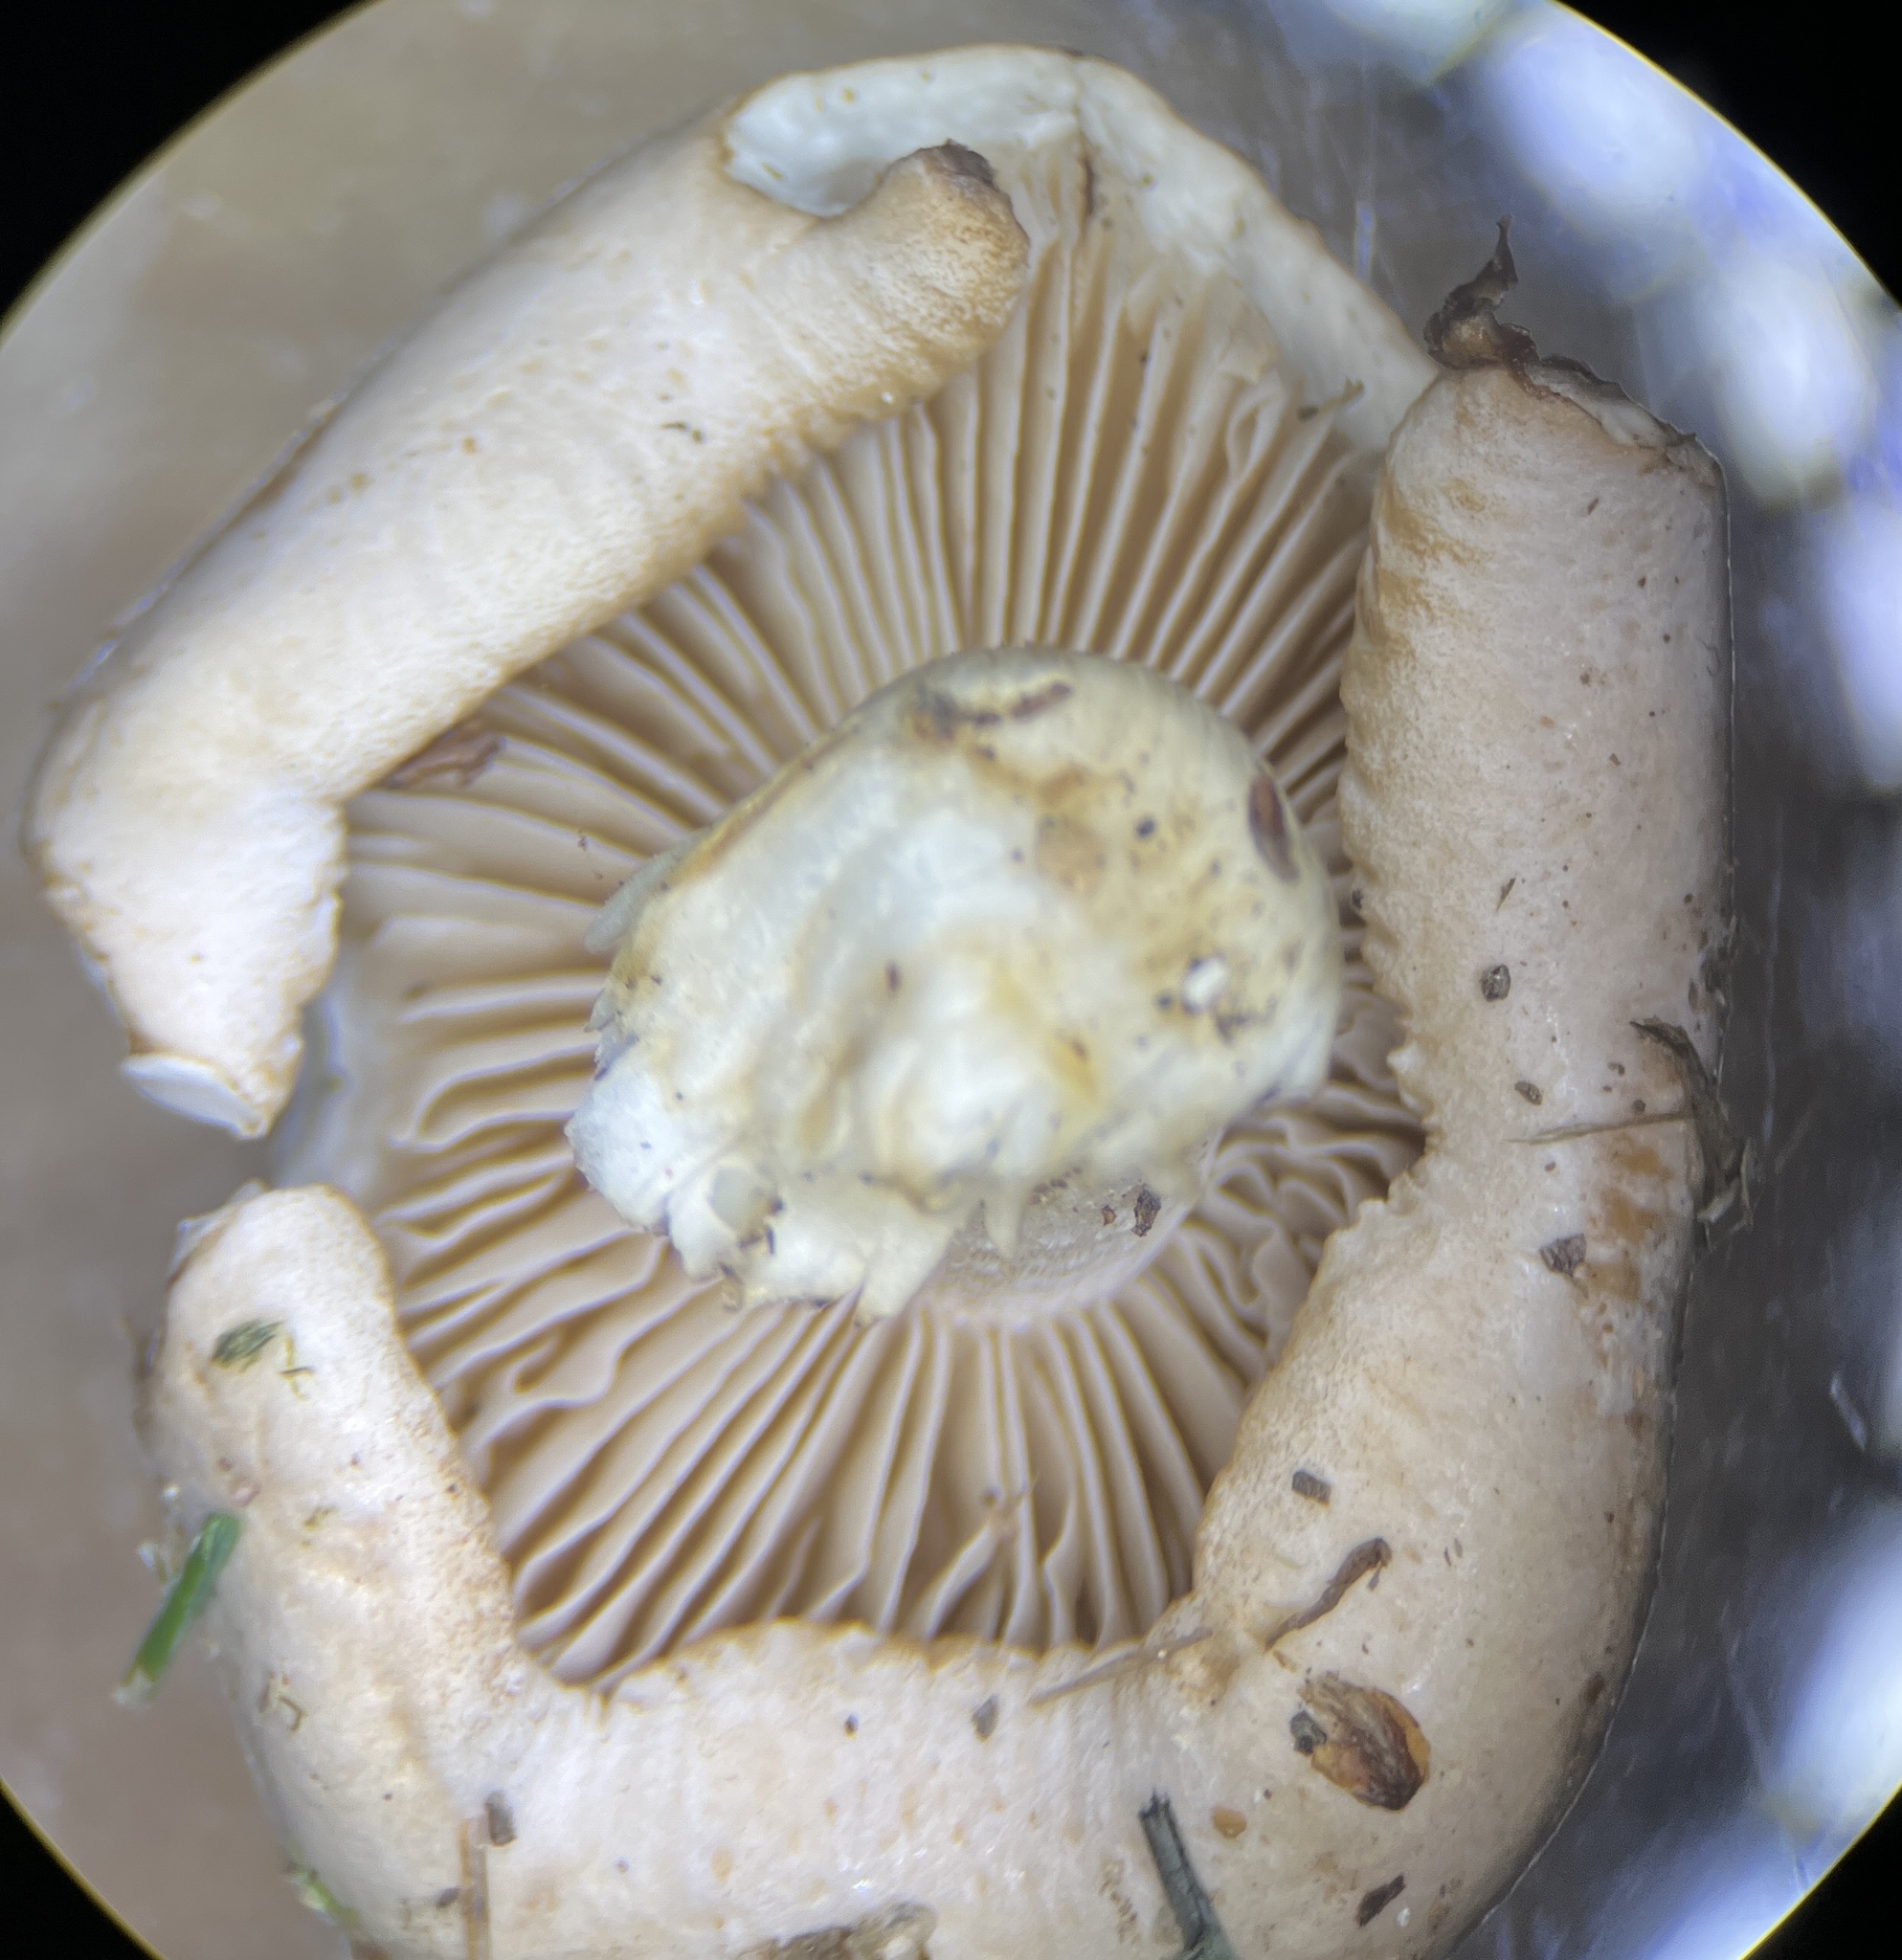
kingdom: Fungi
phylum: Basidiomycota
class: Agaricomycetes
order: Agaricales
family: Hymenogastraceae
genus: Hebeloma
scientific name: Hebeloma sordidum
